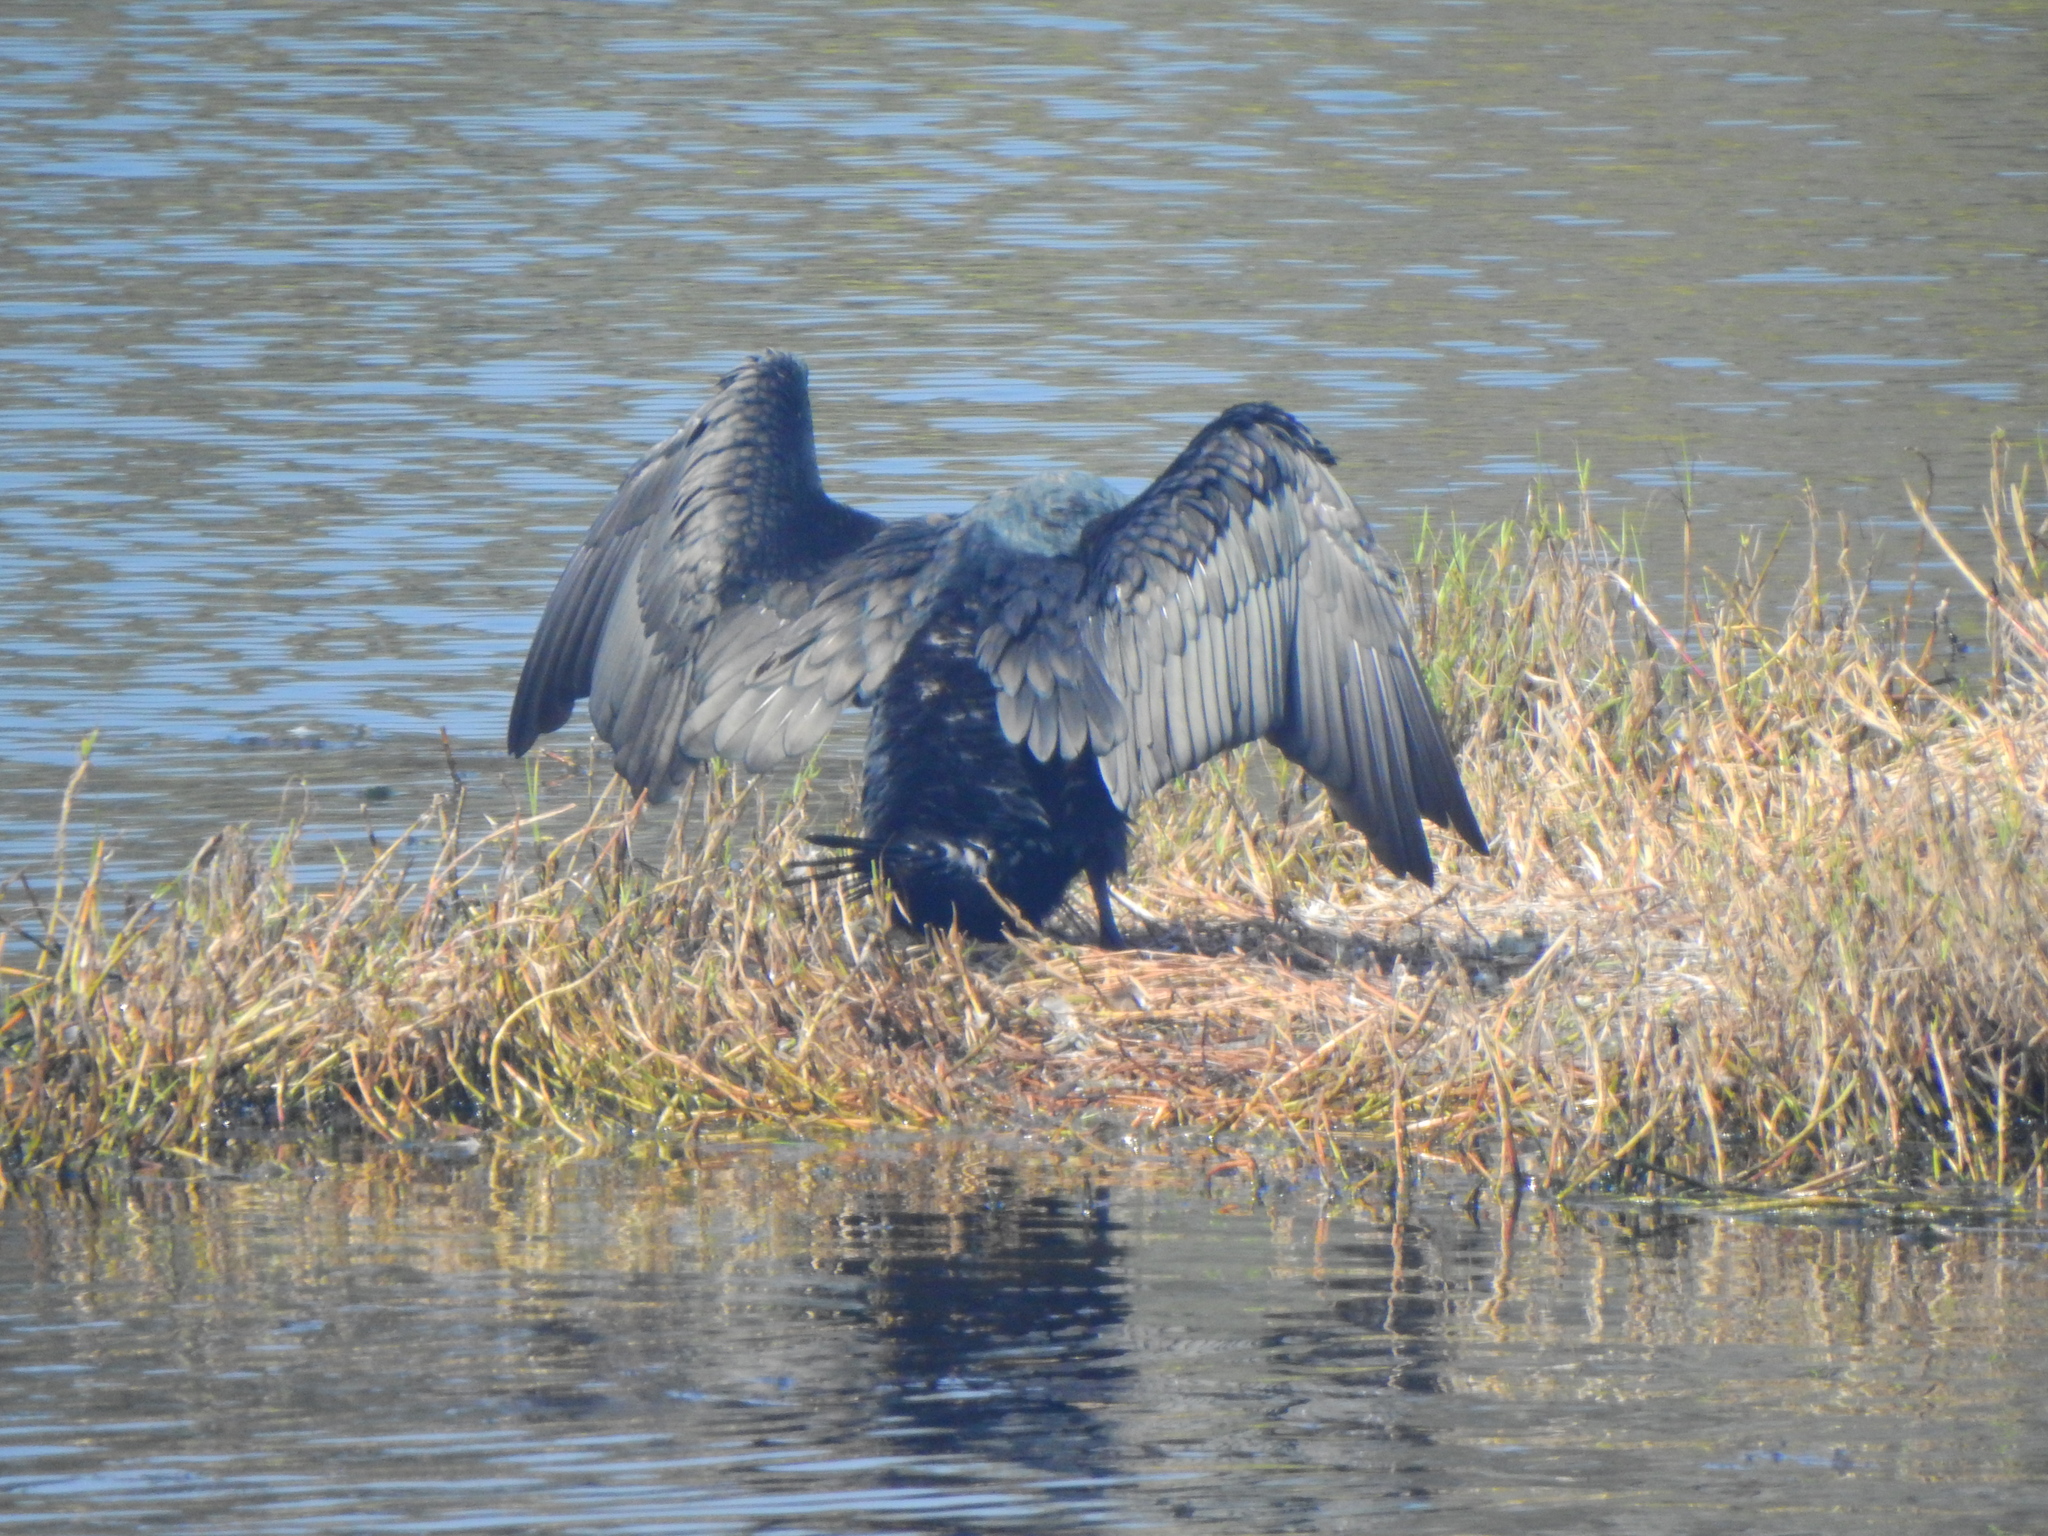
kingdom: Animalia
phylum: Chordata
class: Aves
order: Suliformes
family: Phalacrocoracidae
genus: Phalacrocorax
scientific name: Phalacrocorax carbo
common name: Great cormorant
